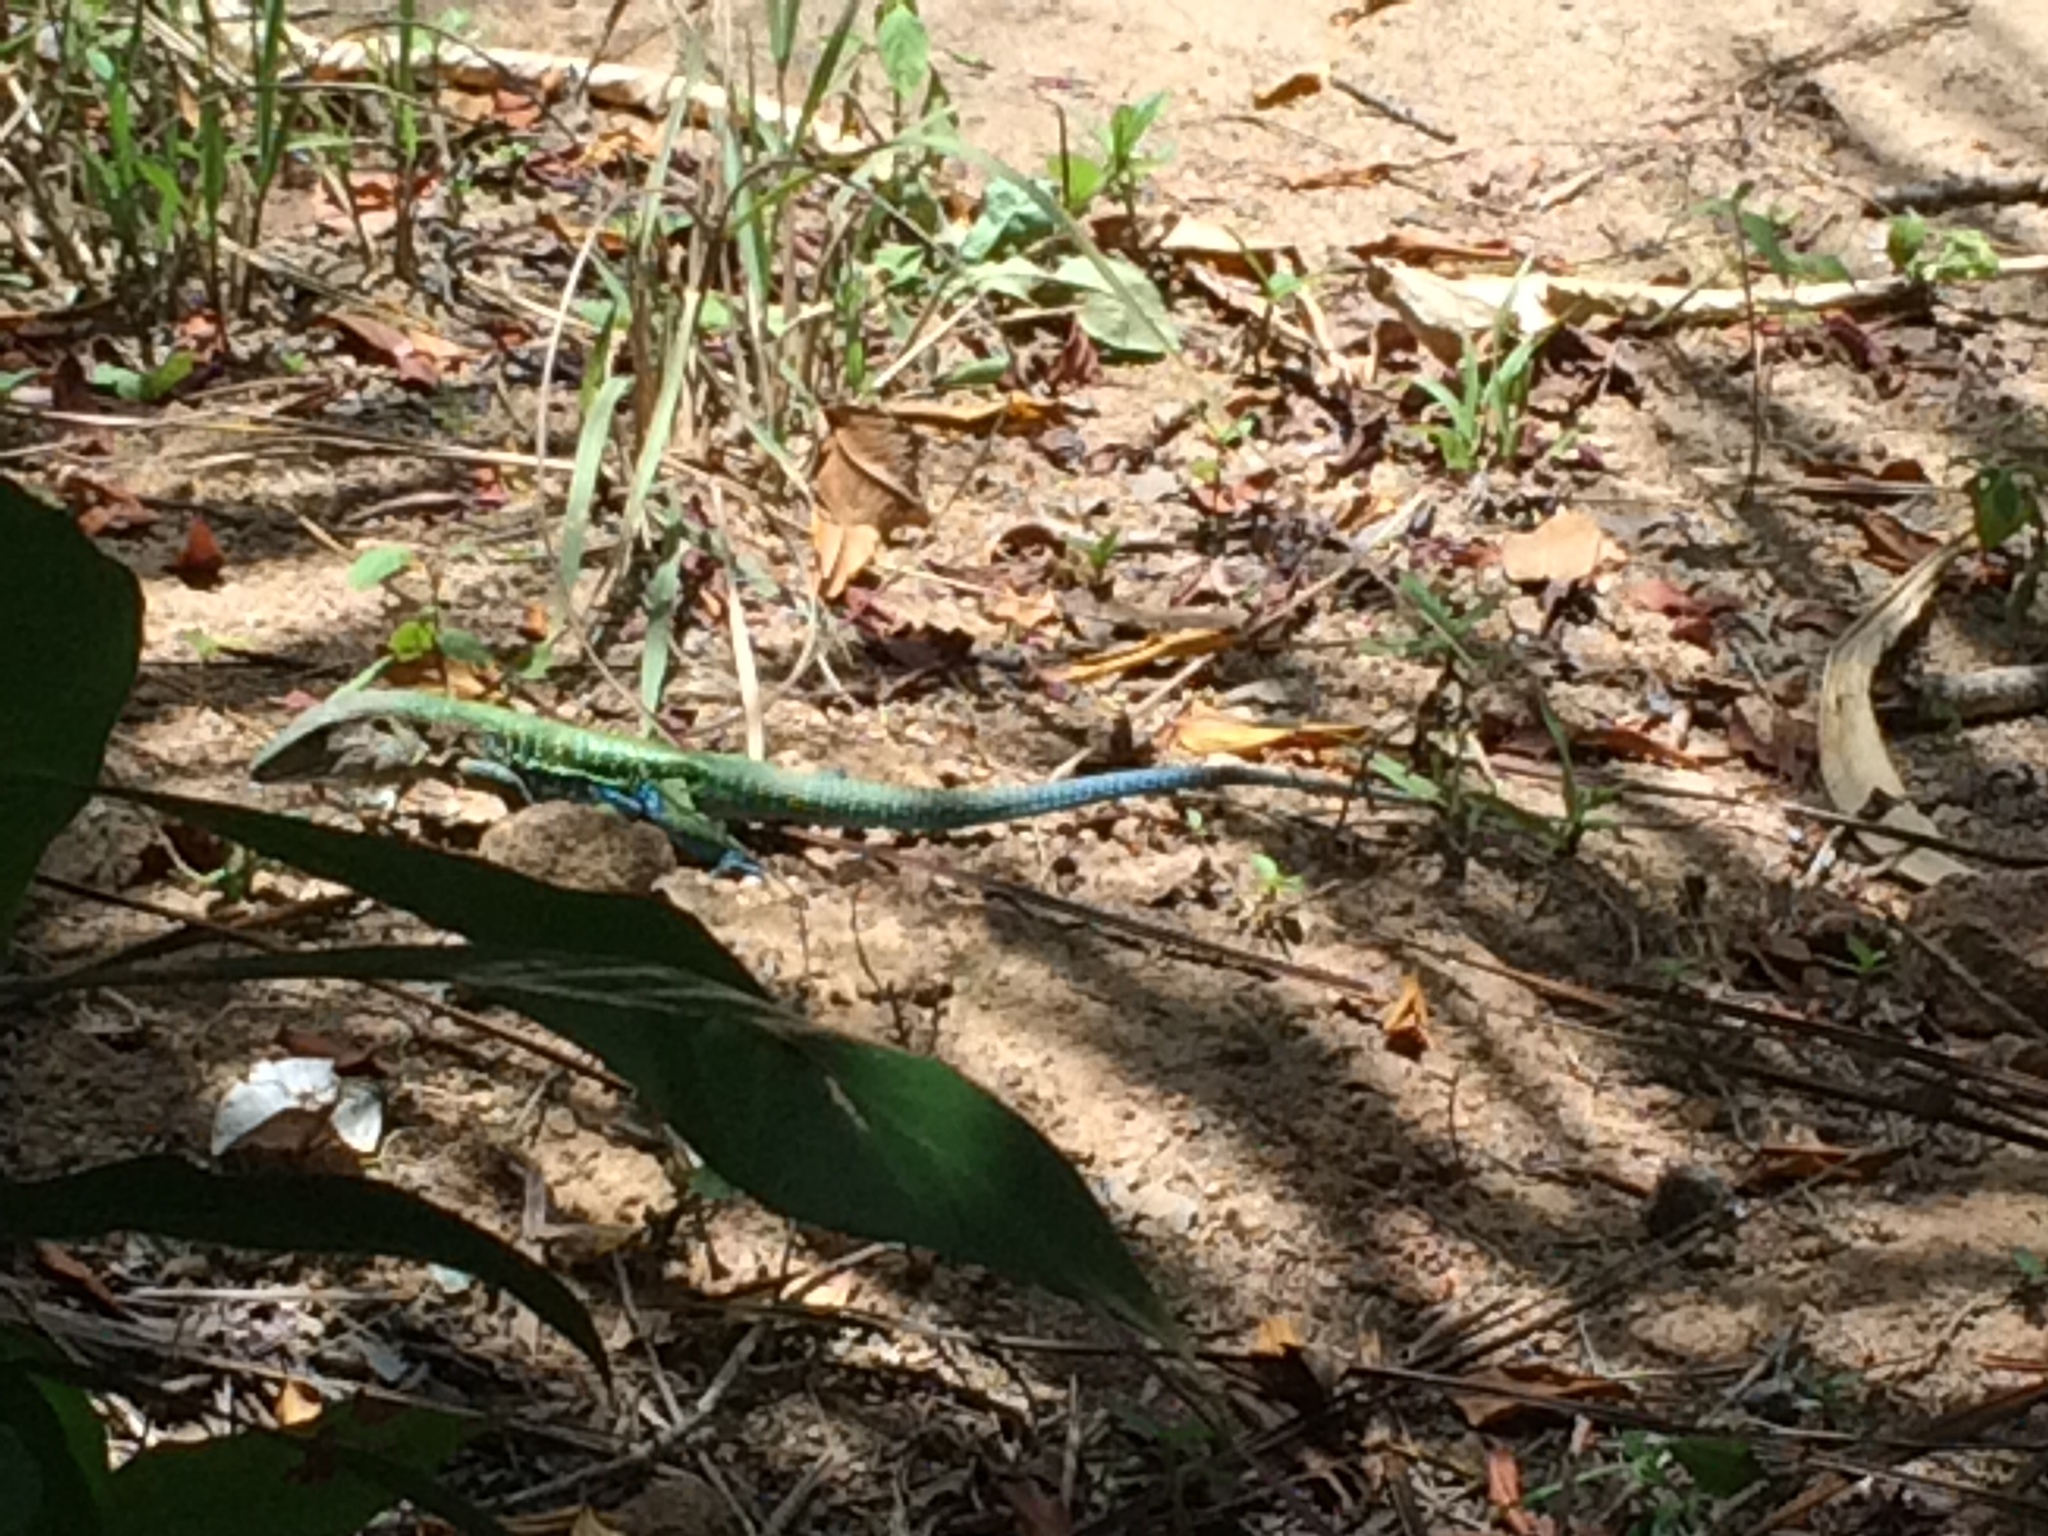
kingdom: Animalia
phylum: Chordata
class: Squamata
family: Teiidae
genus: Ameiva
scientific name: Ameiva ameiva
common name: Giant ameiva
